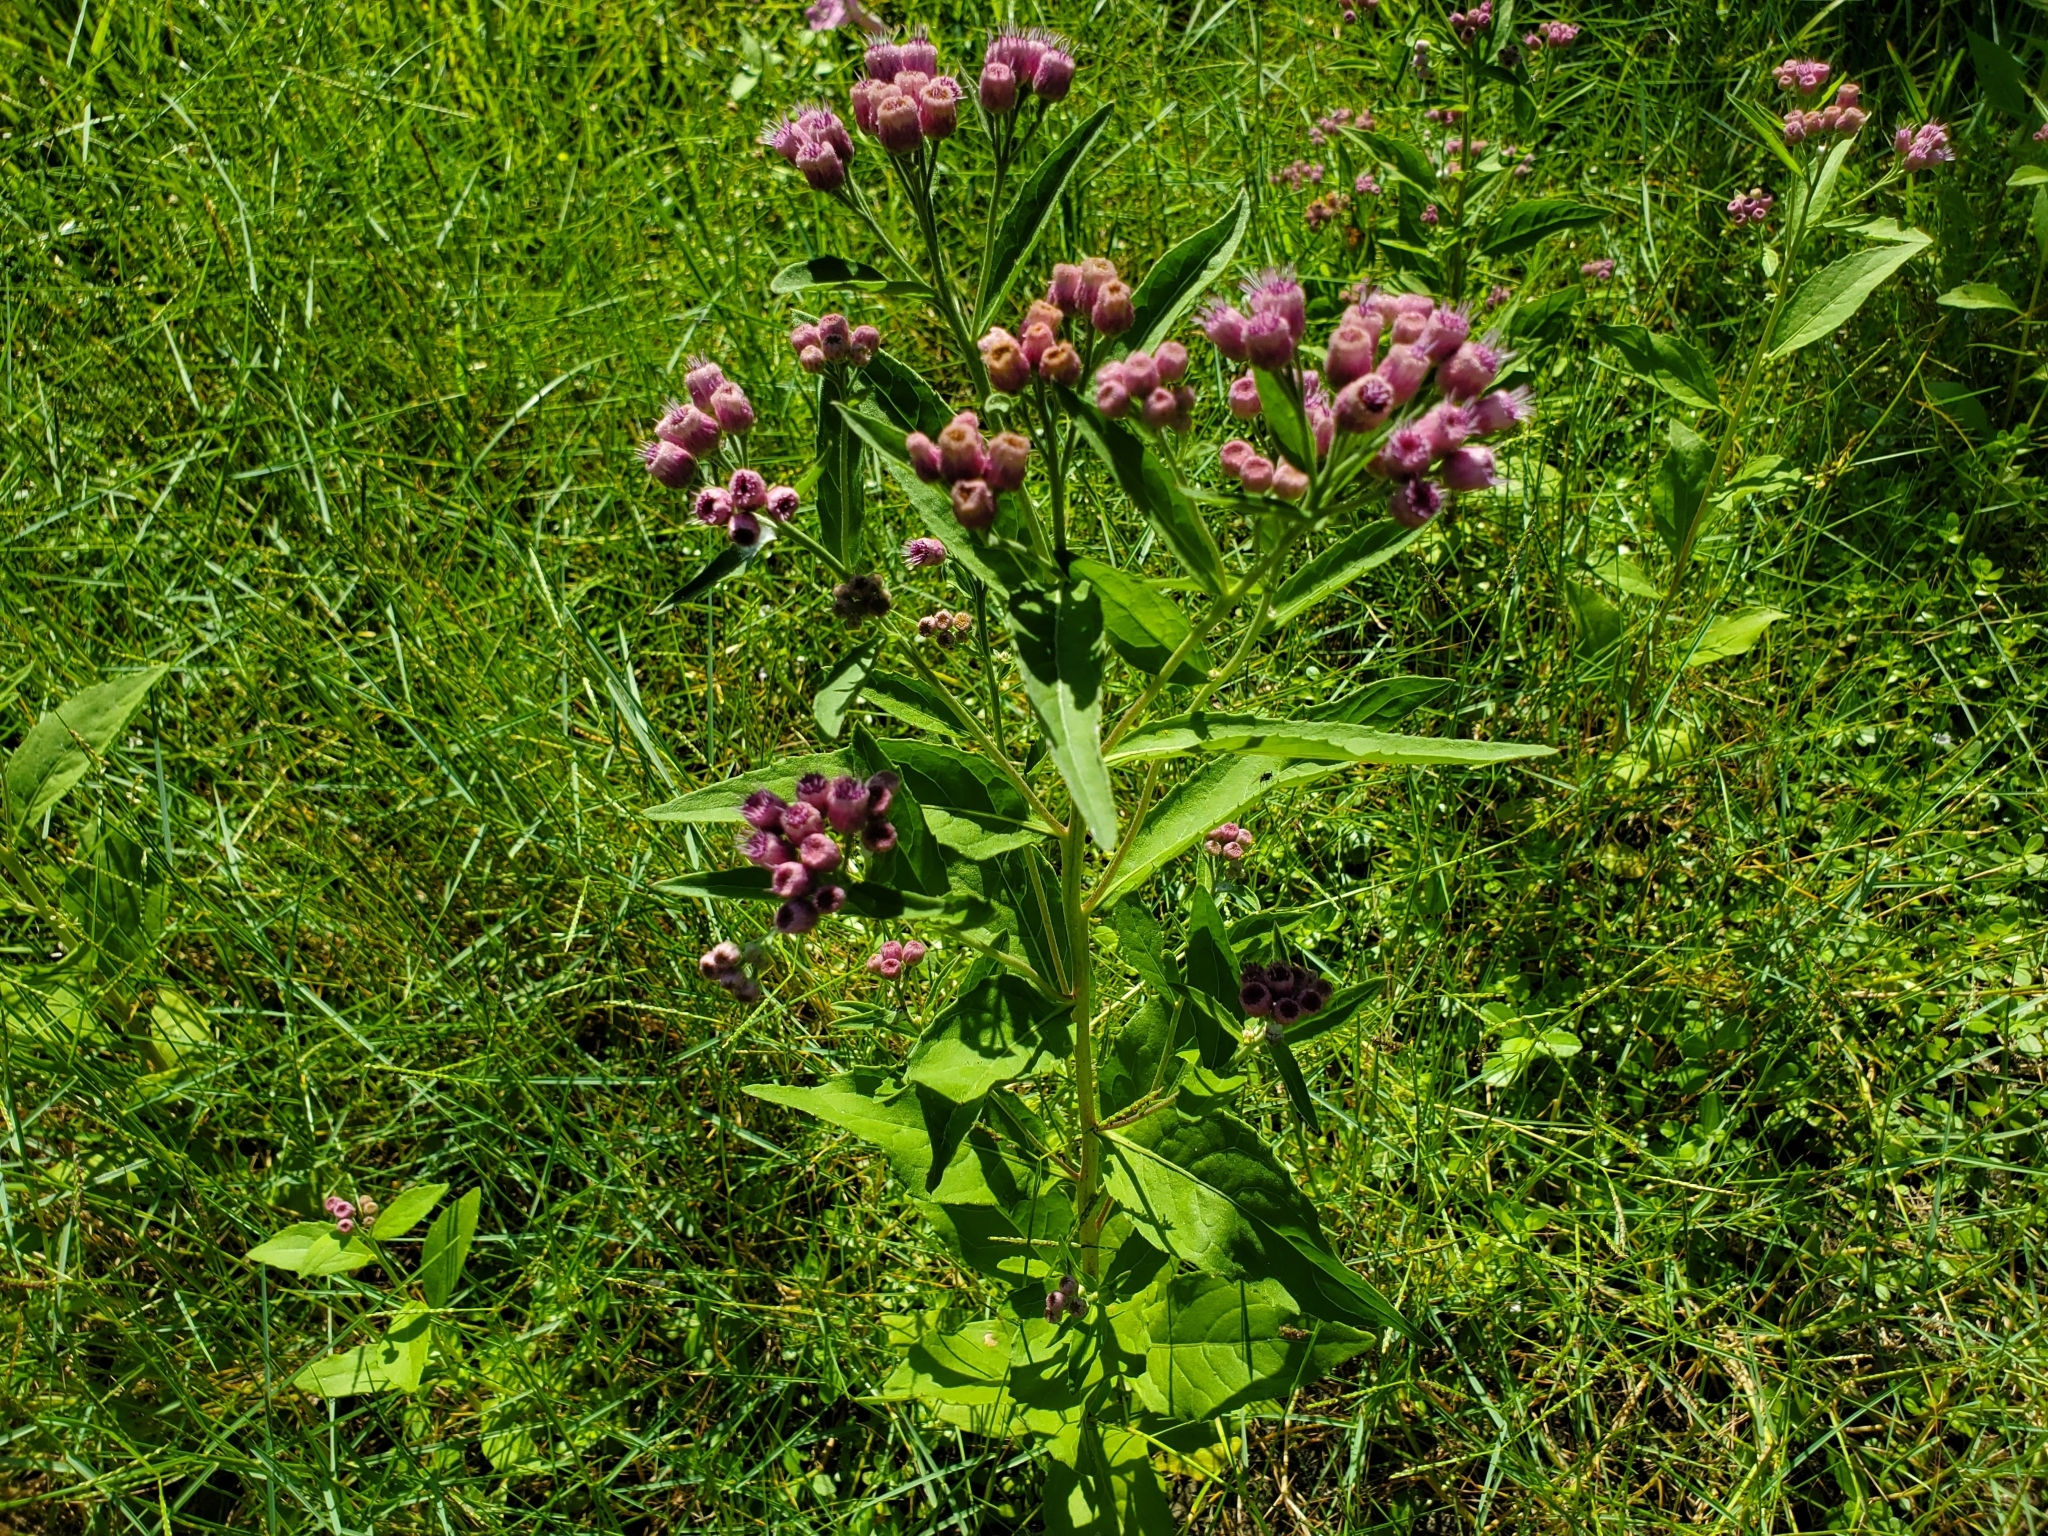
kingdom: Plantae
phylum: Tracheophyta
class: Magnoliopsida
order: Asterales
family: Asteraceae
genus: Pluchea
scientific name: Pluchea odorata
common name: Saltmarsh fleabane
